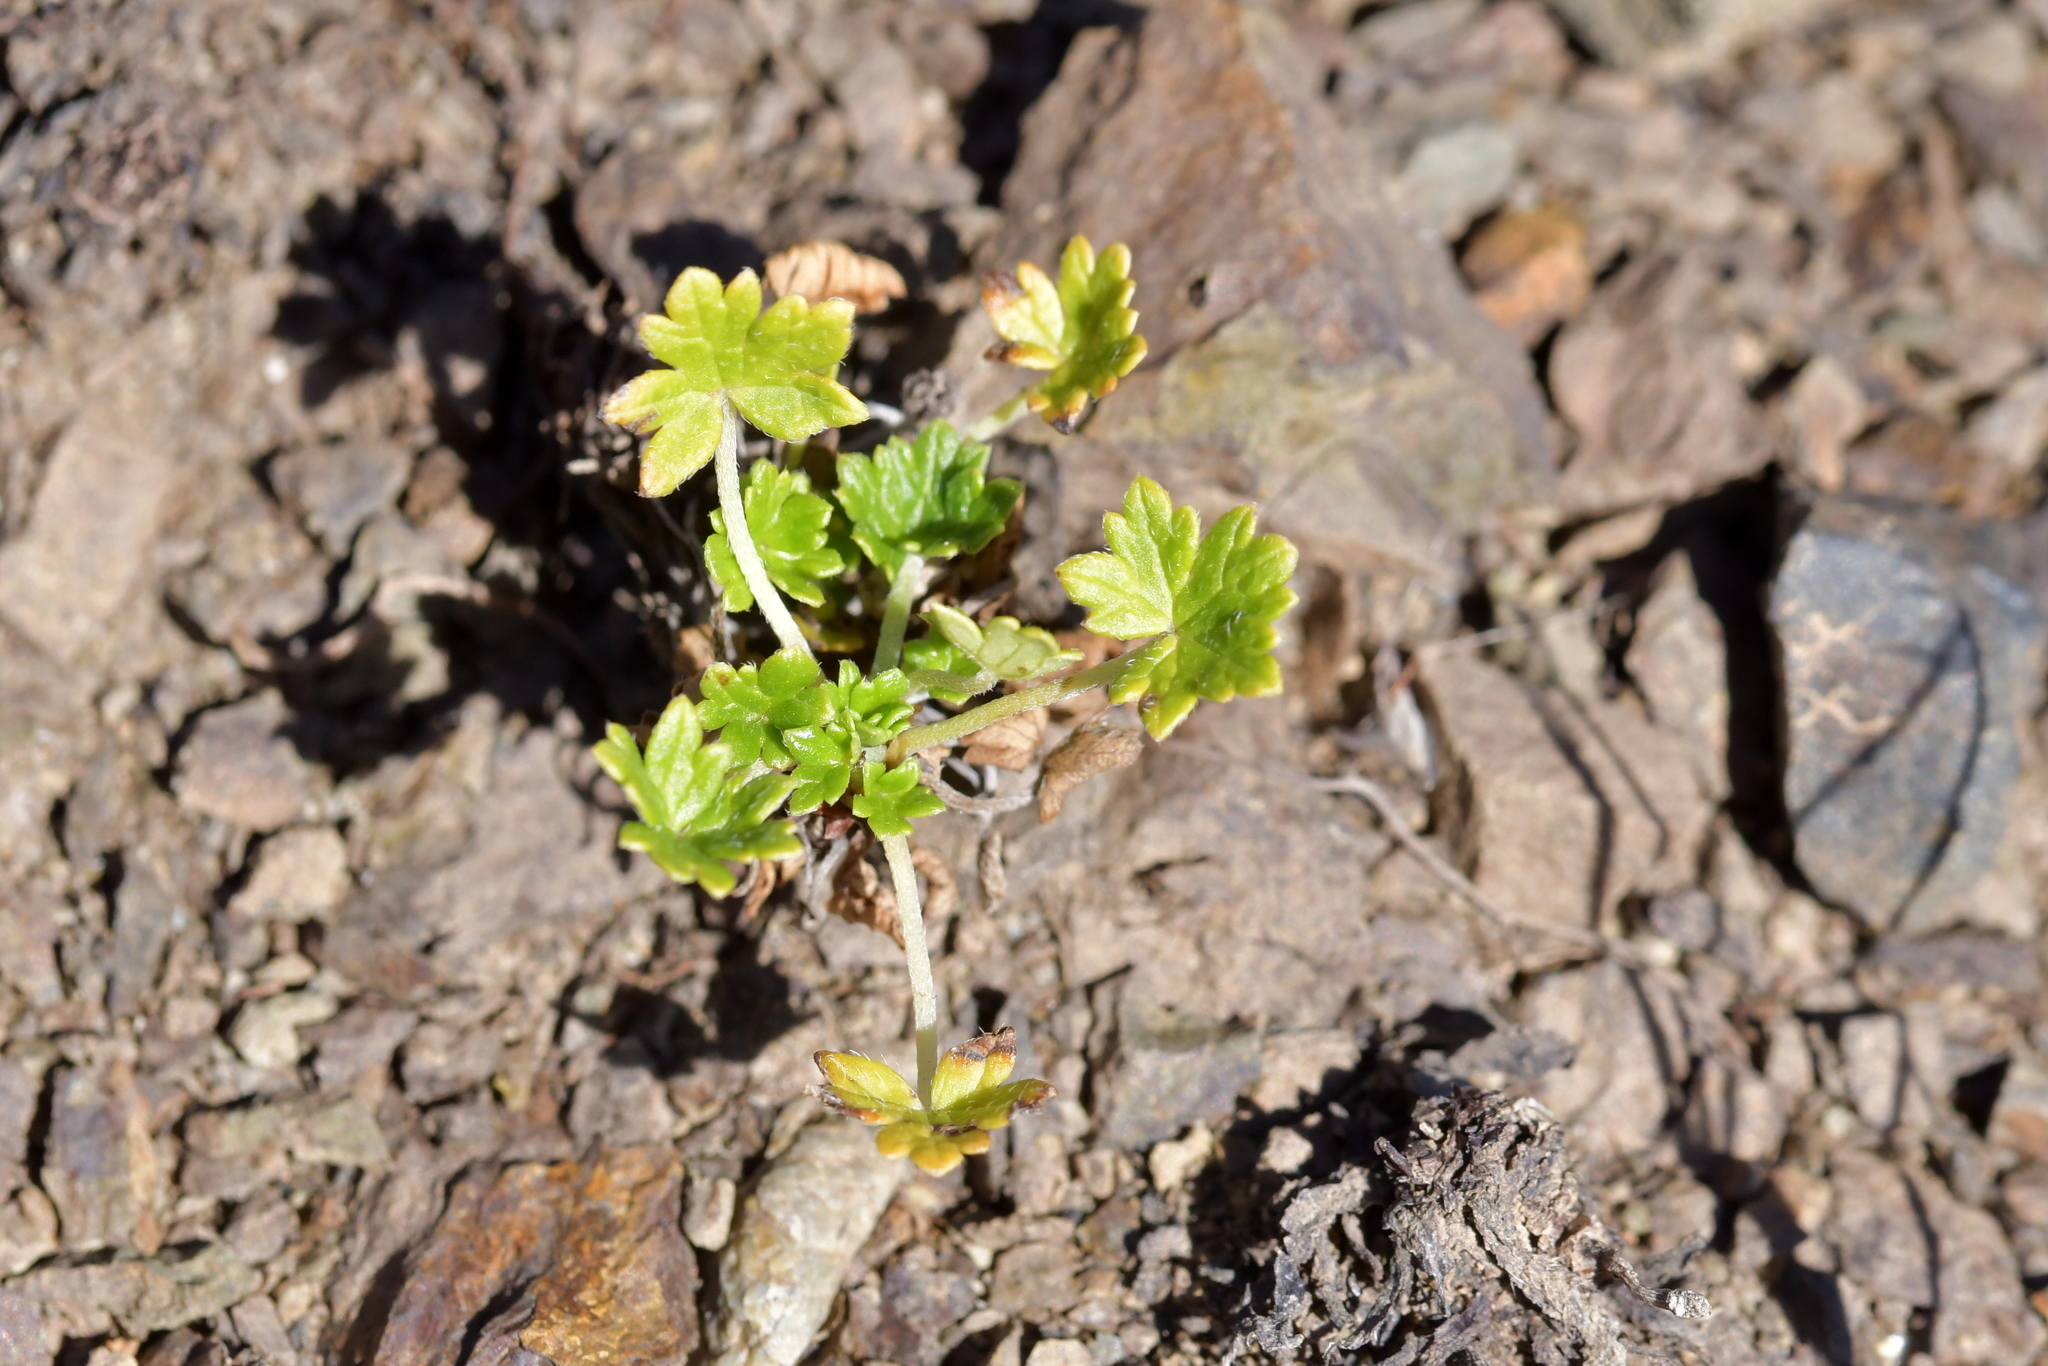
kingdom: Plantae
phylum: Tracheophyta
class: Magnoliopsida
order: Geraniales
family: Geraniaceae
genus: Geranium
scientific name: Geranium brevicaule
